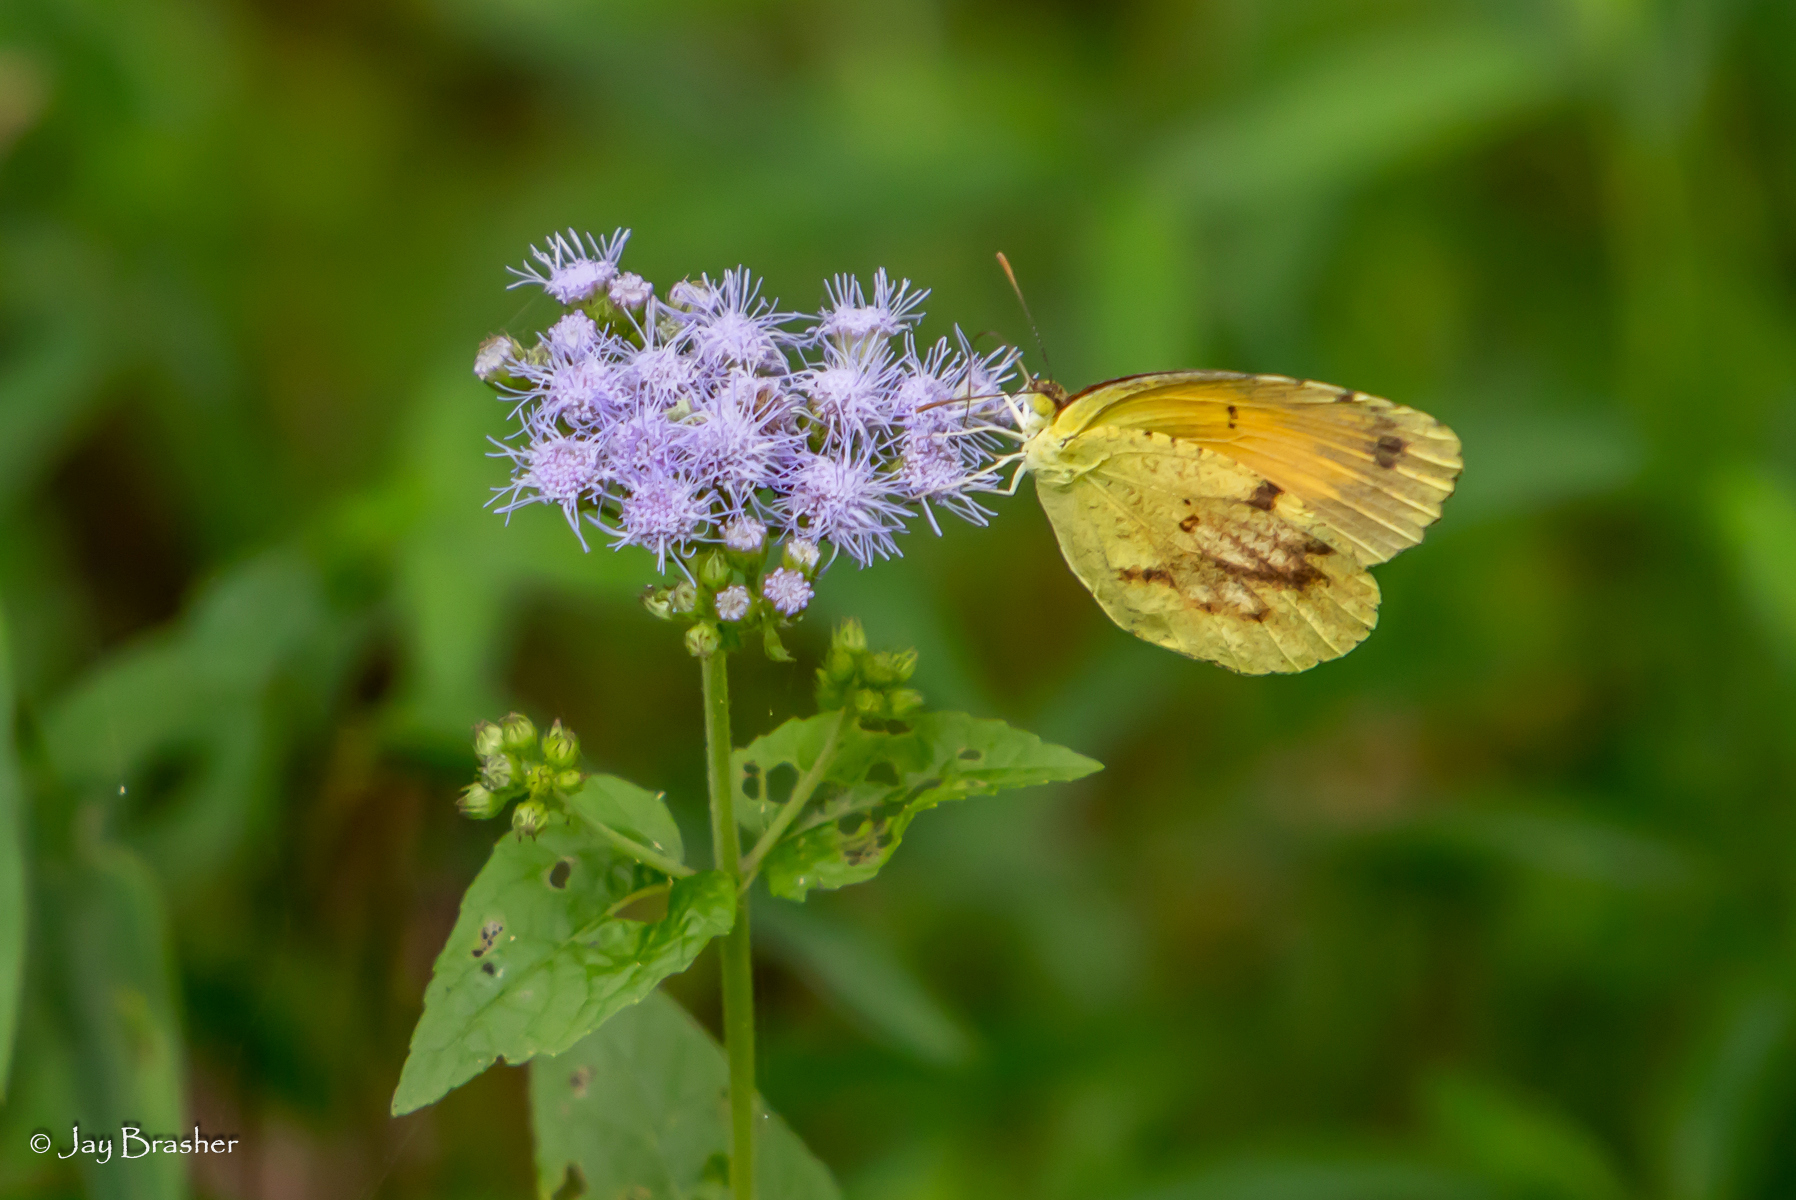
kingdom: Plantae
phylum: Tracheophyta
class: Magnoliopsida
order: Asterales
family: Asteraceae
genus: Conoclinium
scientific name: Conoclinium coelestinum
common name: Blue mistflower
